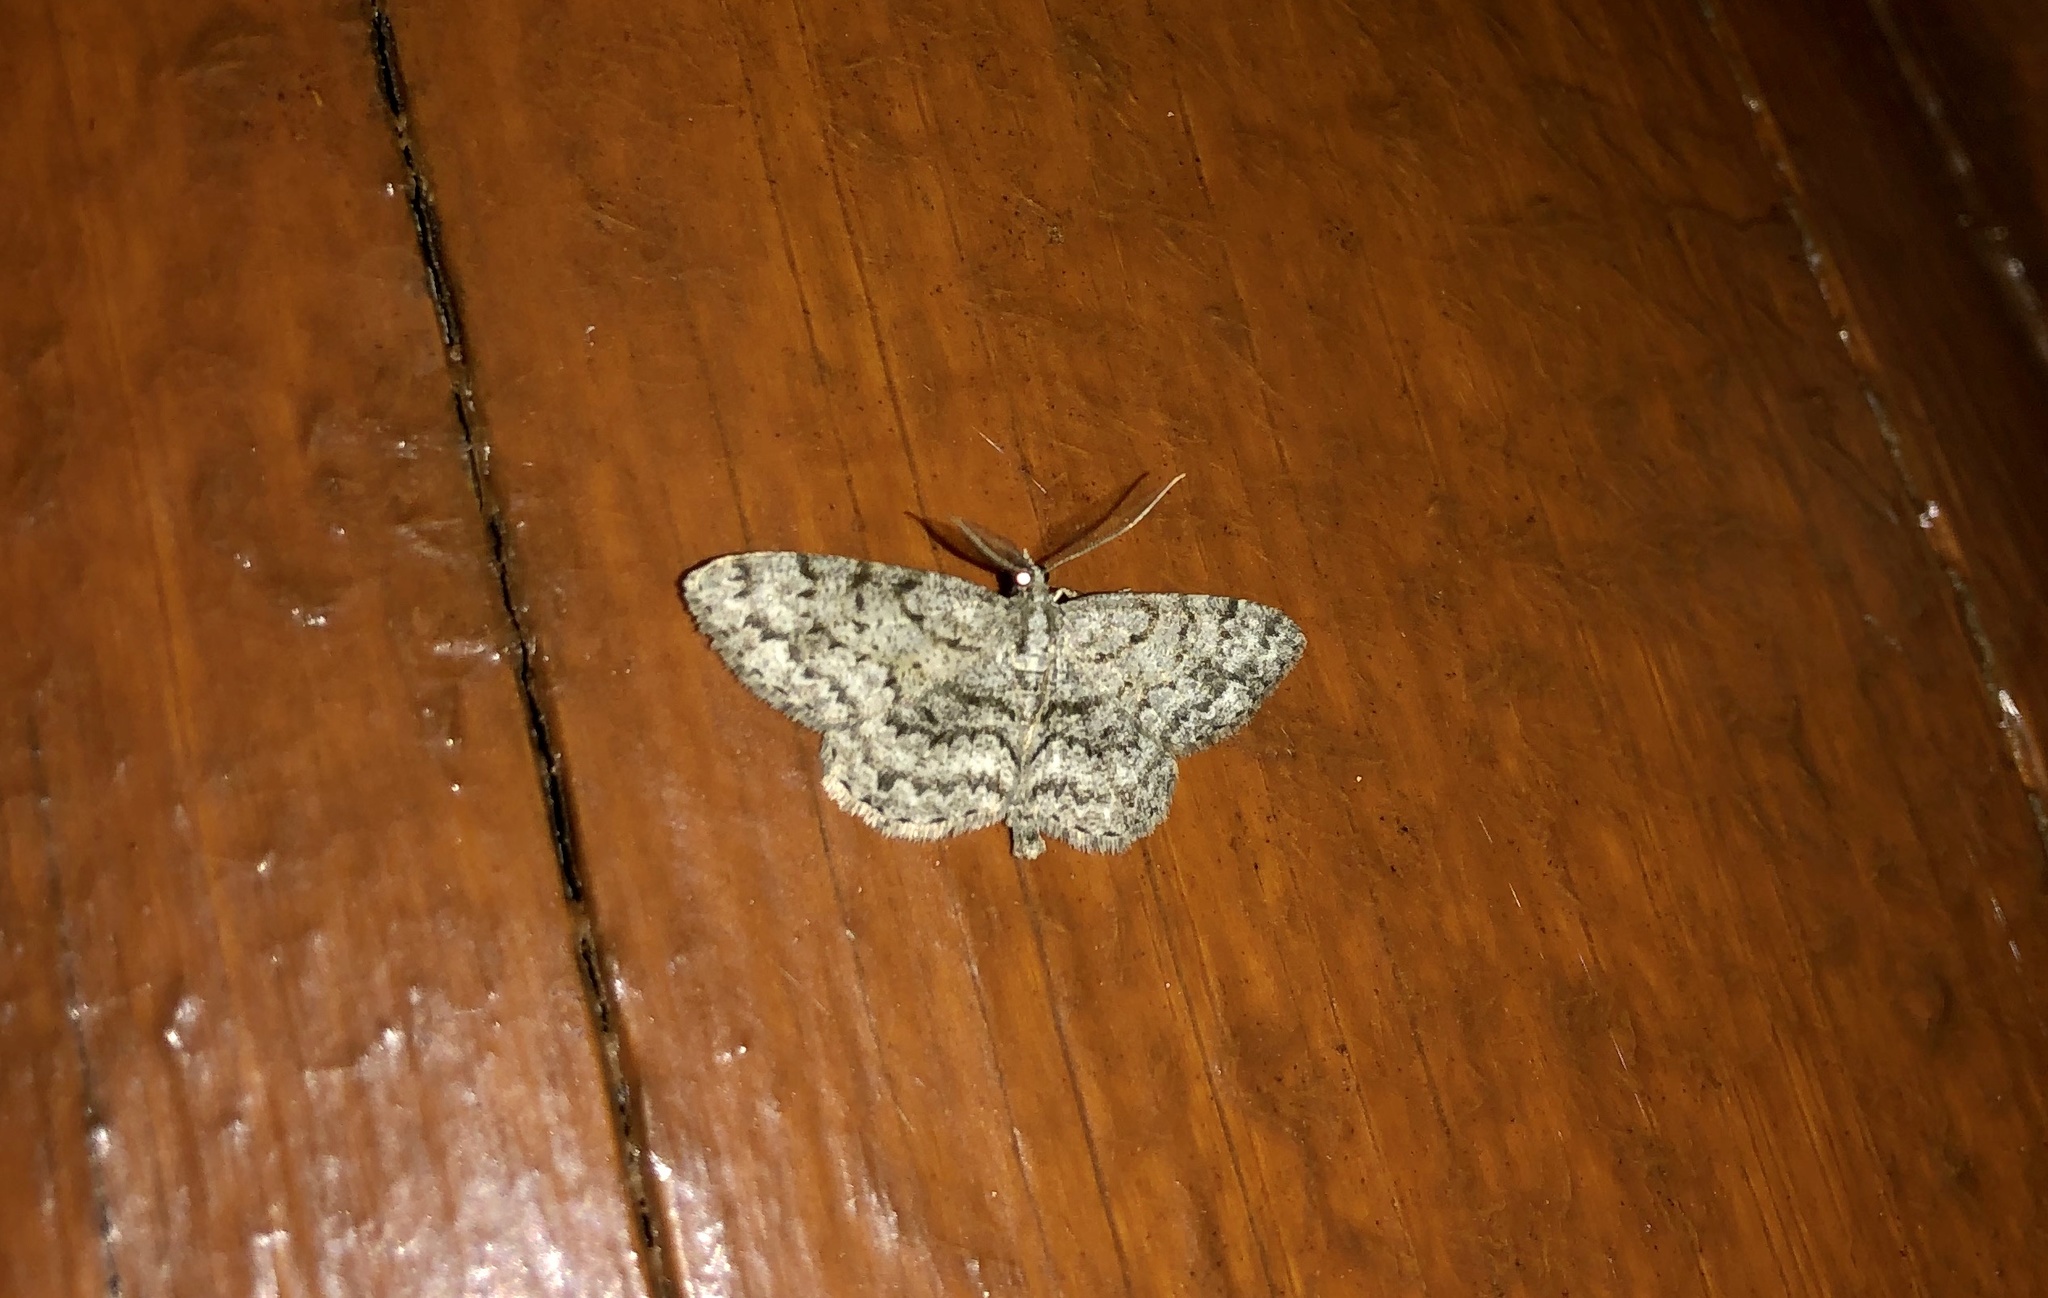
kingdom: Animalia
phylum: Arthropoda
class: Insecta
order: Lepidoptera
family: Geometridae
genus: Protoboarmia
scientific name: Protoboarmia porcelaria
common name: Porcelain gray
